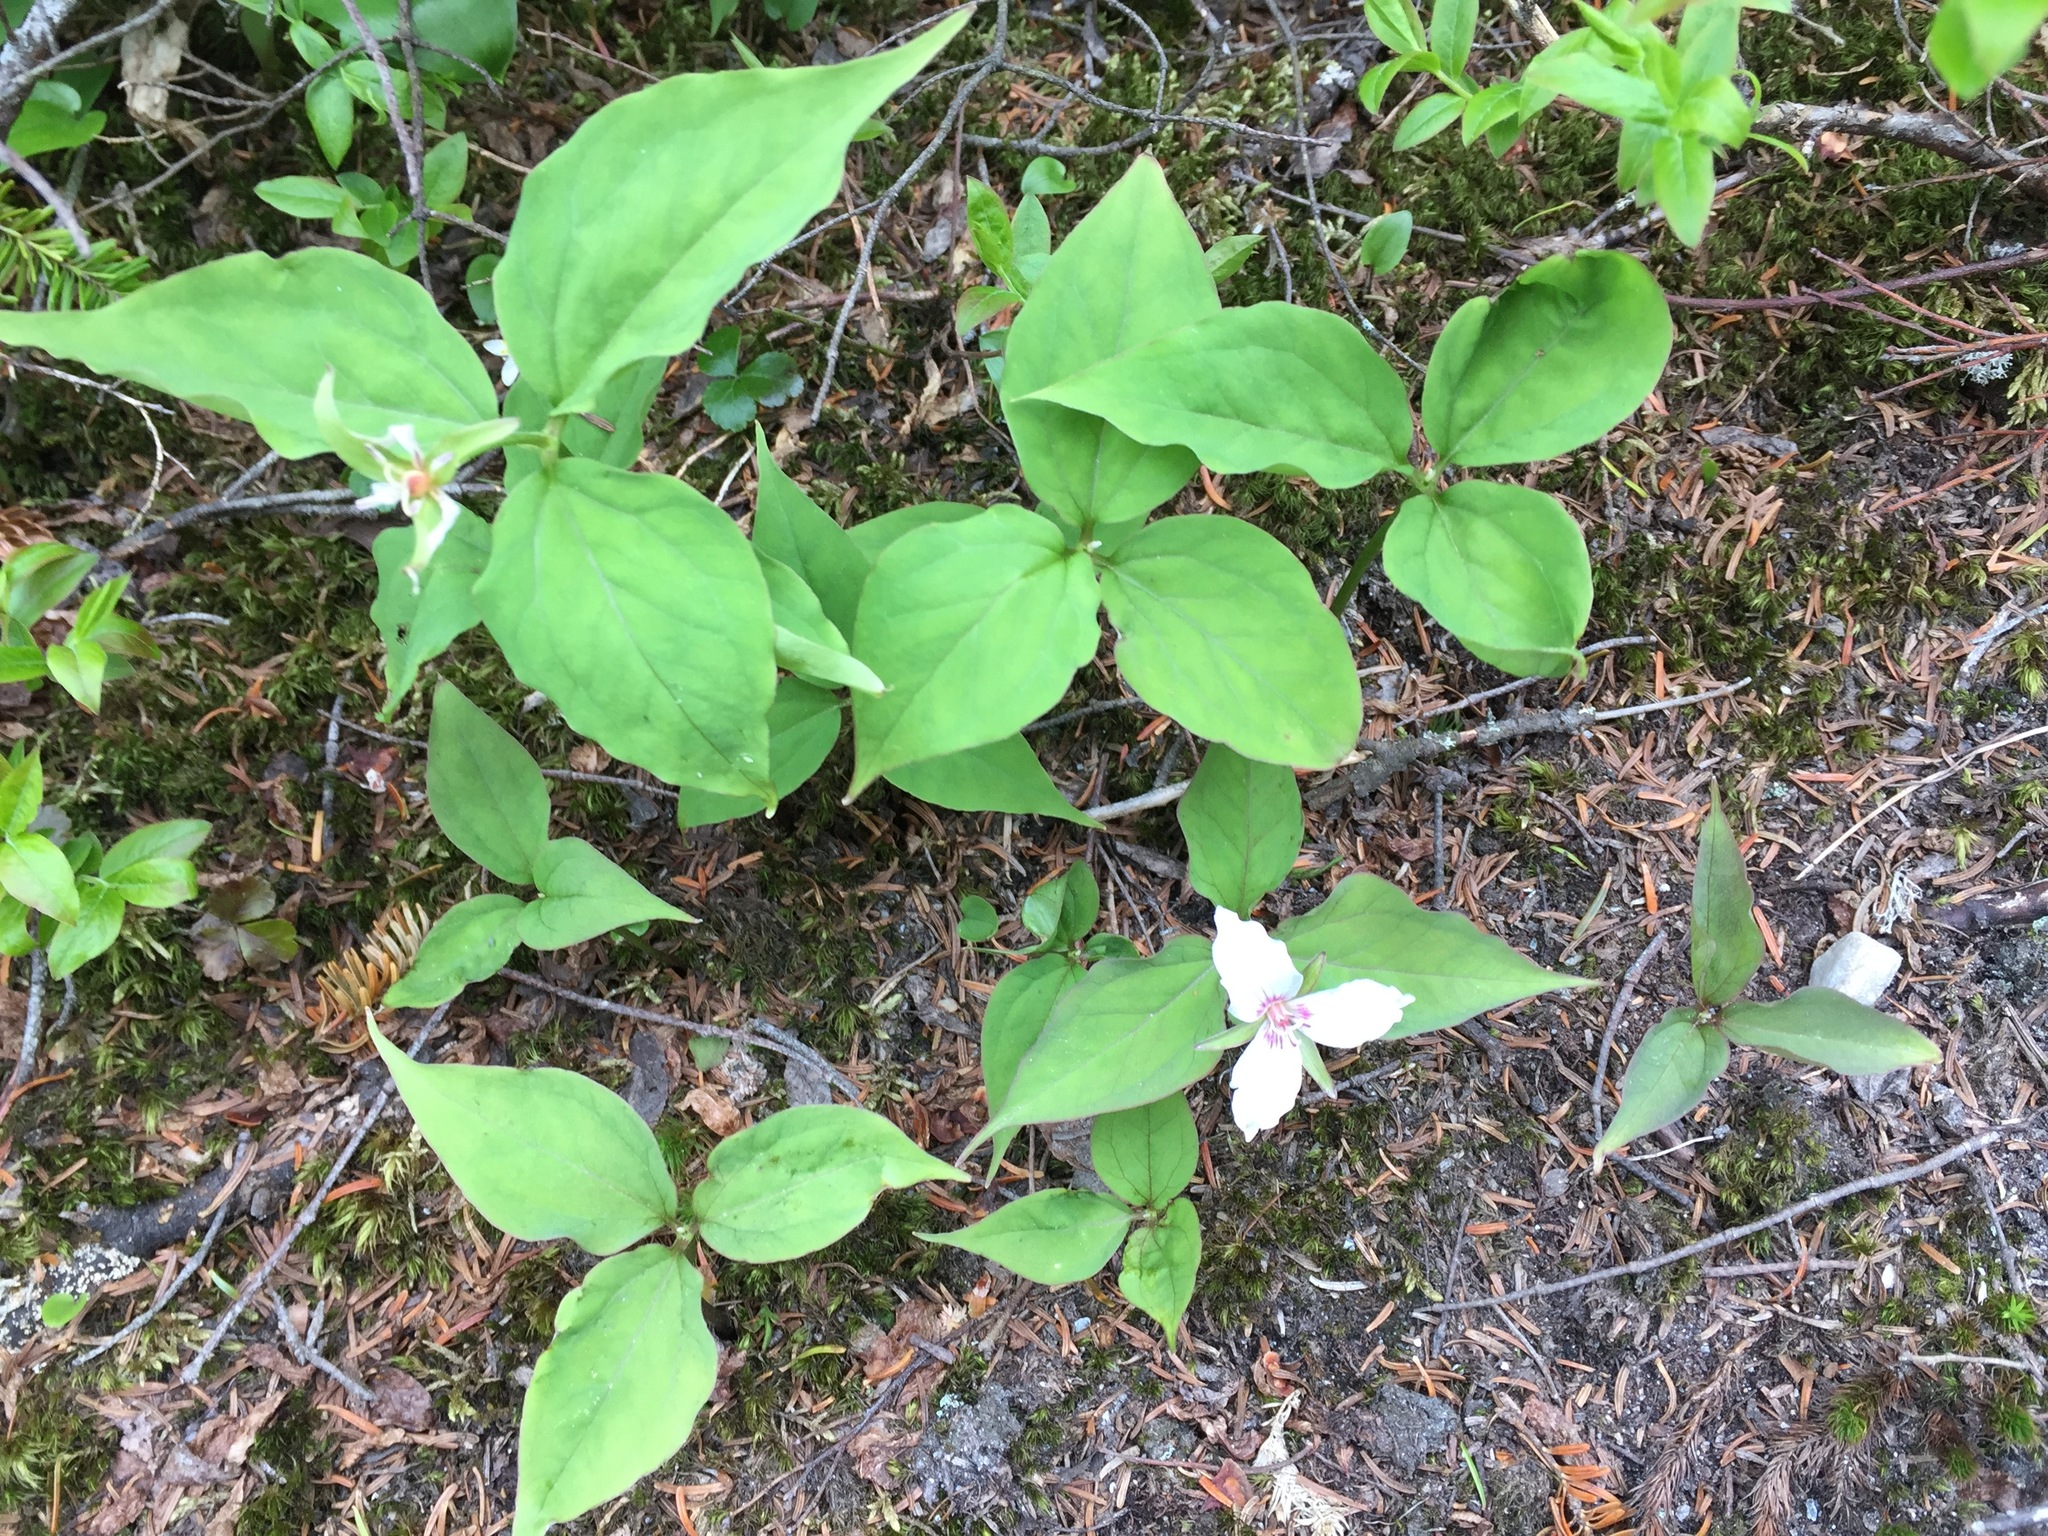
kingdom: Plantae
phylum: Tracheophyta
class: Liliopsida
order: Liliales
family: Melanthiaceae
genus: Trillium
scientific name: Trillium undulatum
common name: Paint trillium
